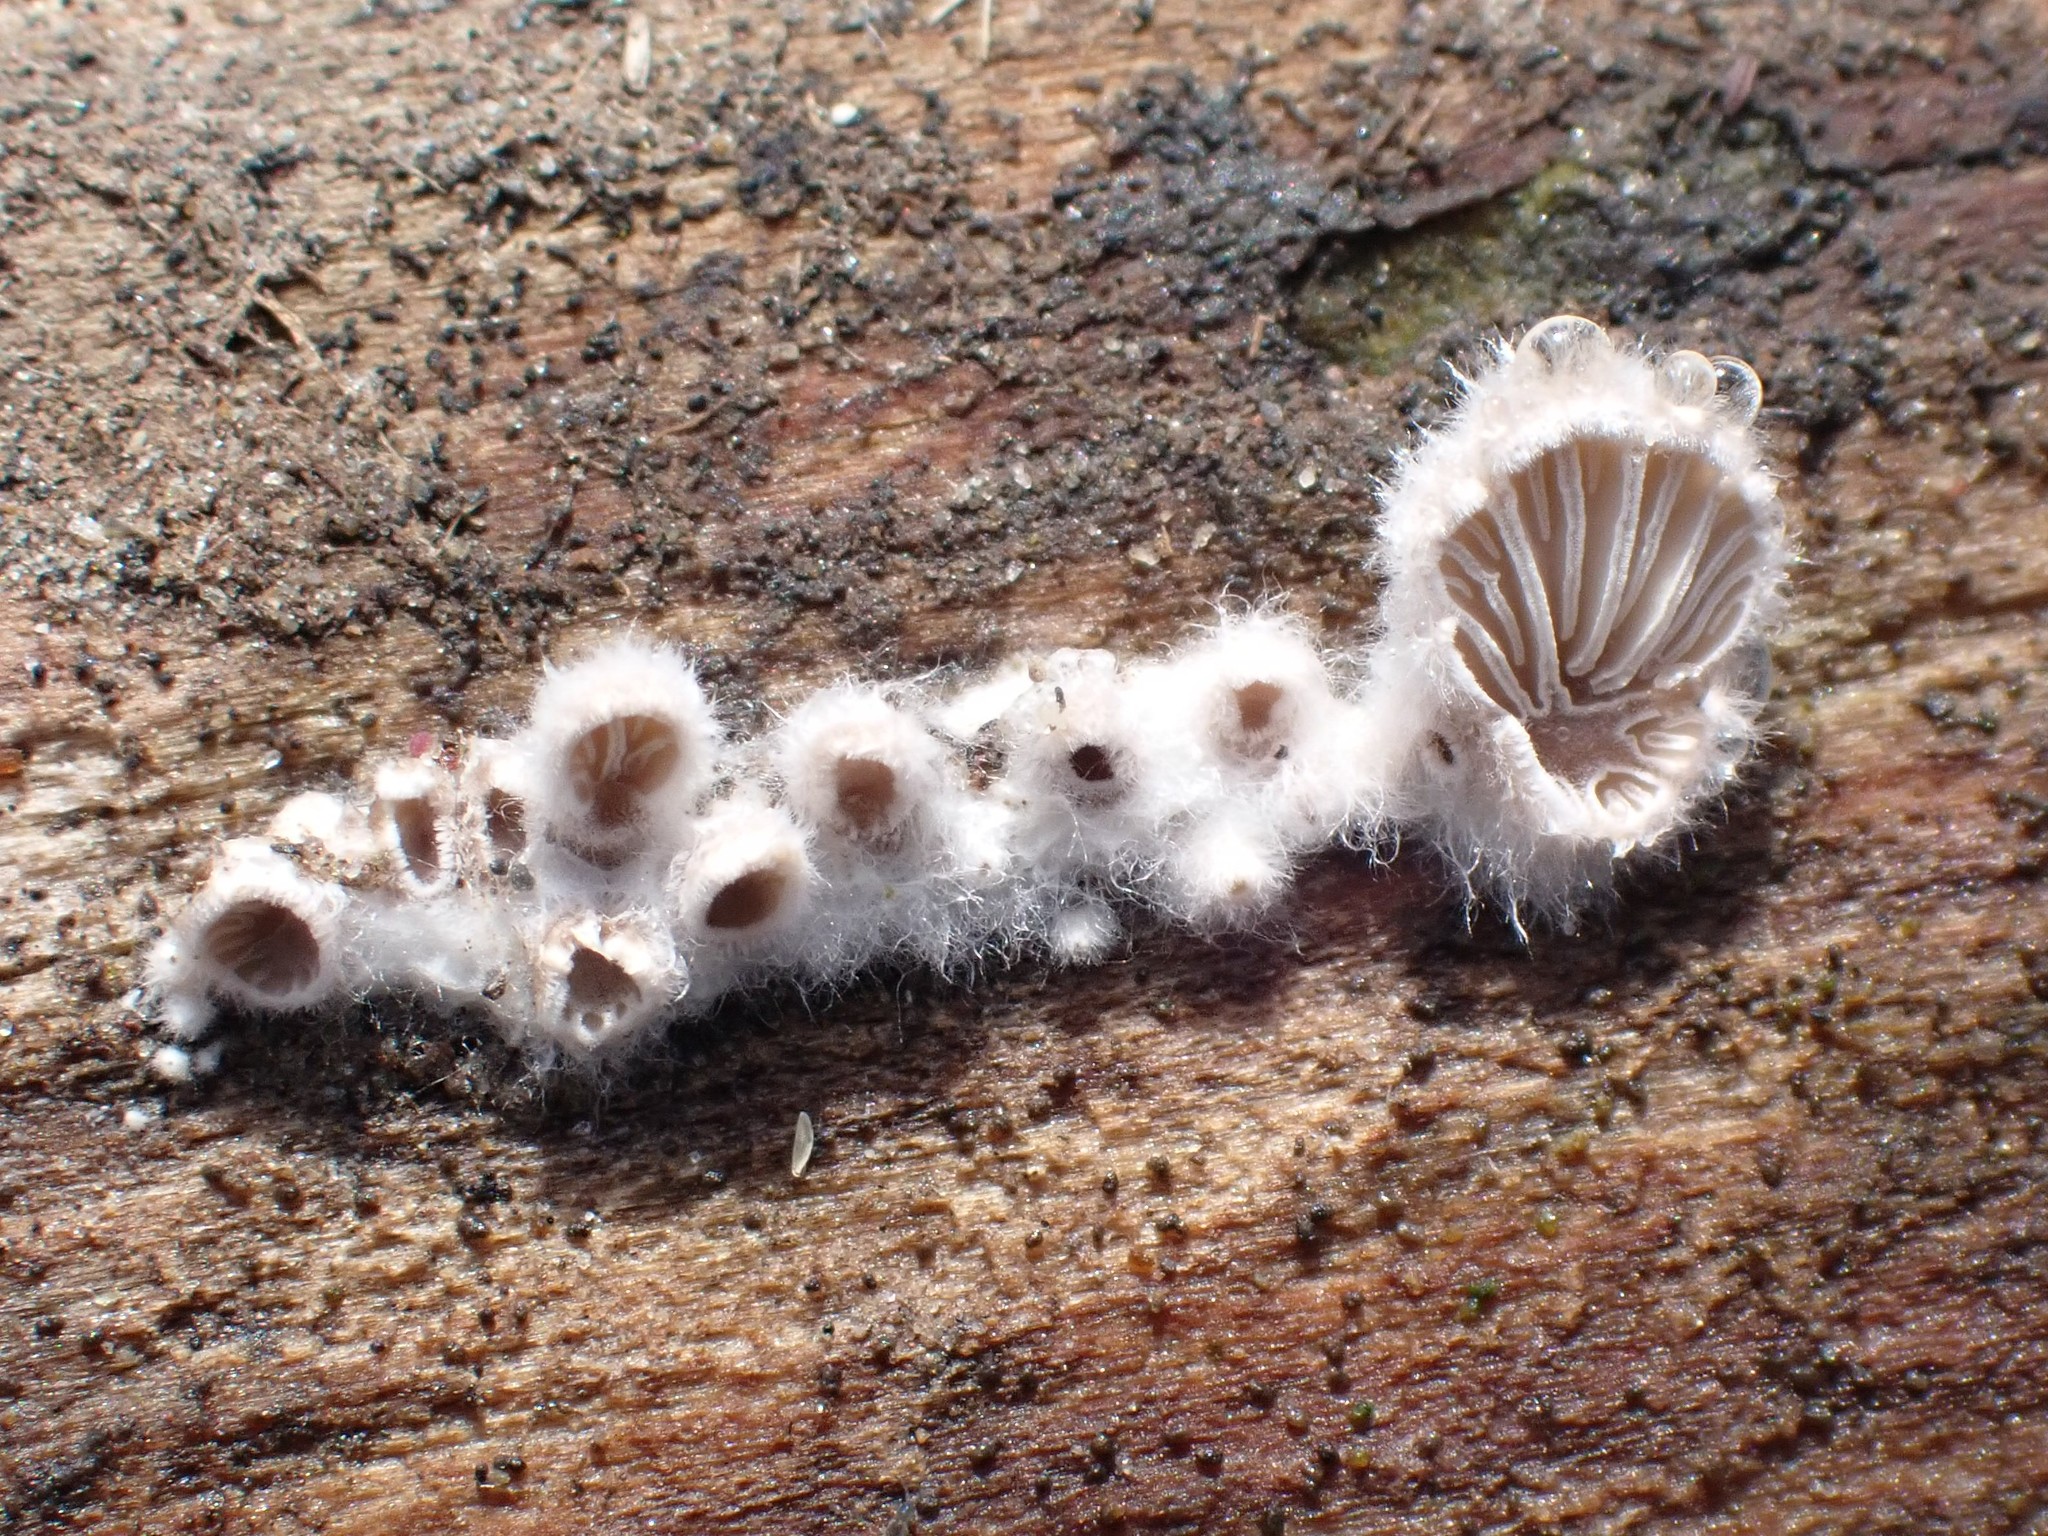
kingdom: Fungi
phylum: Basidiomycota
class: Agaricomycetes
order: Agaricales
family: Schizophyllaceae
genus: Schizophyllum
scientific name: Schizophyllum commune
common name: Common porecrust
